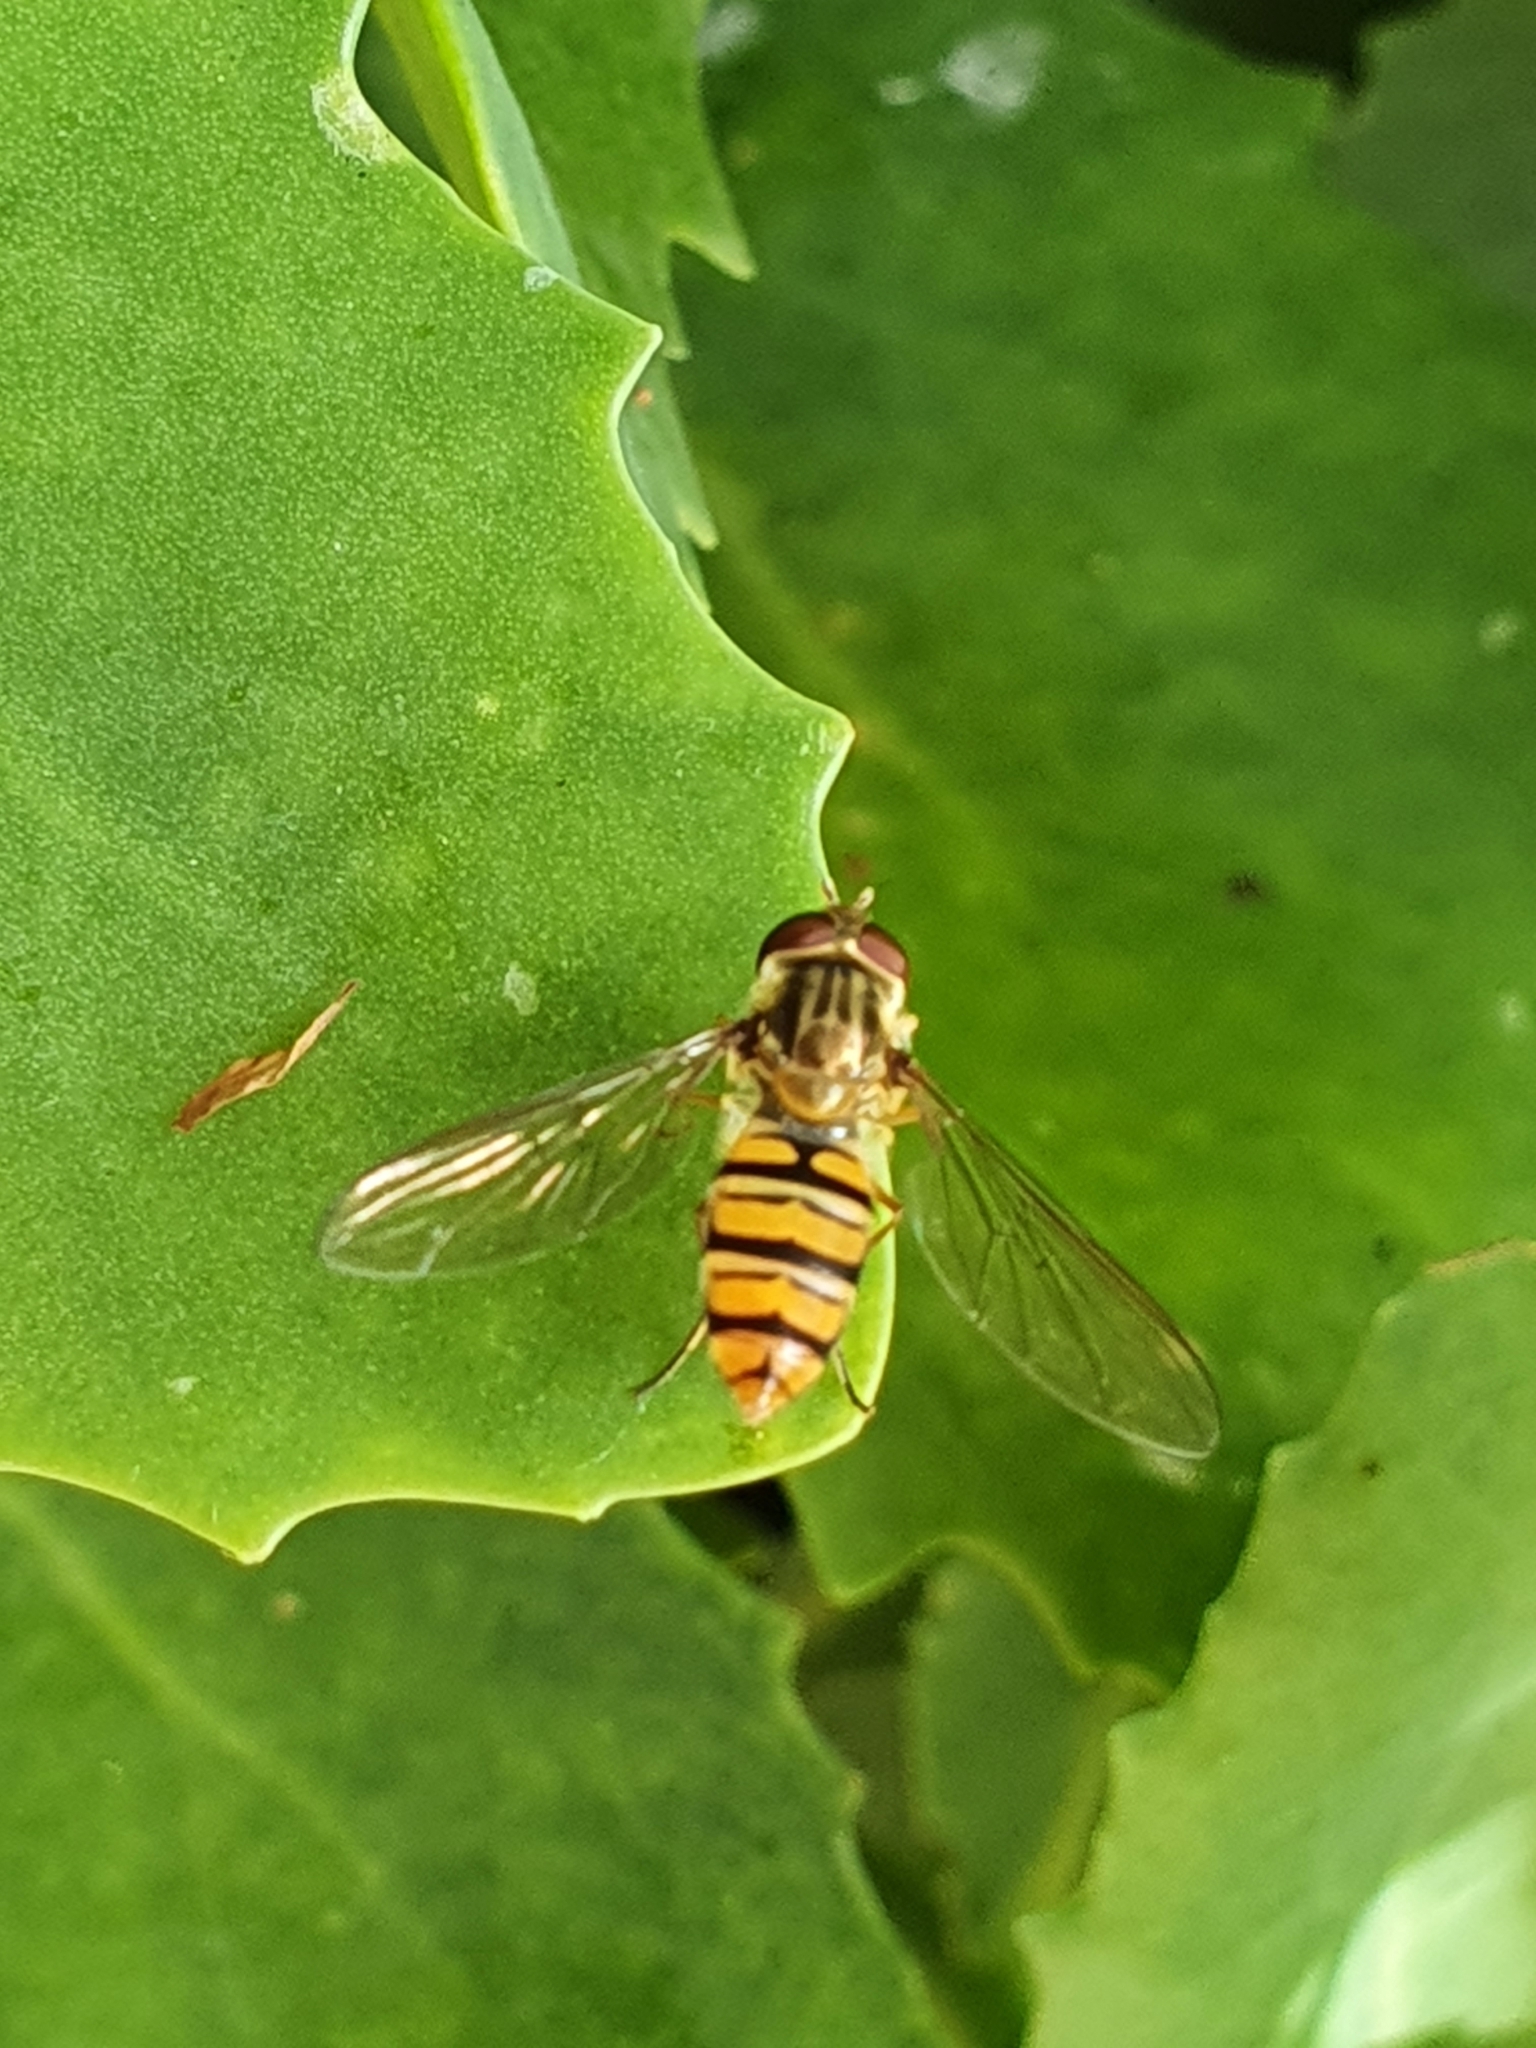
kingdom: Animalia
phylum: Arthropoda
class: Insecta
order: Diptera
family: Syrphidae
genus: Episyrphus
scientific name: Episyrphus balteatus
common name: Marmalade hoverfly
